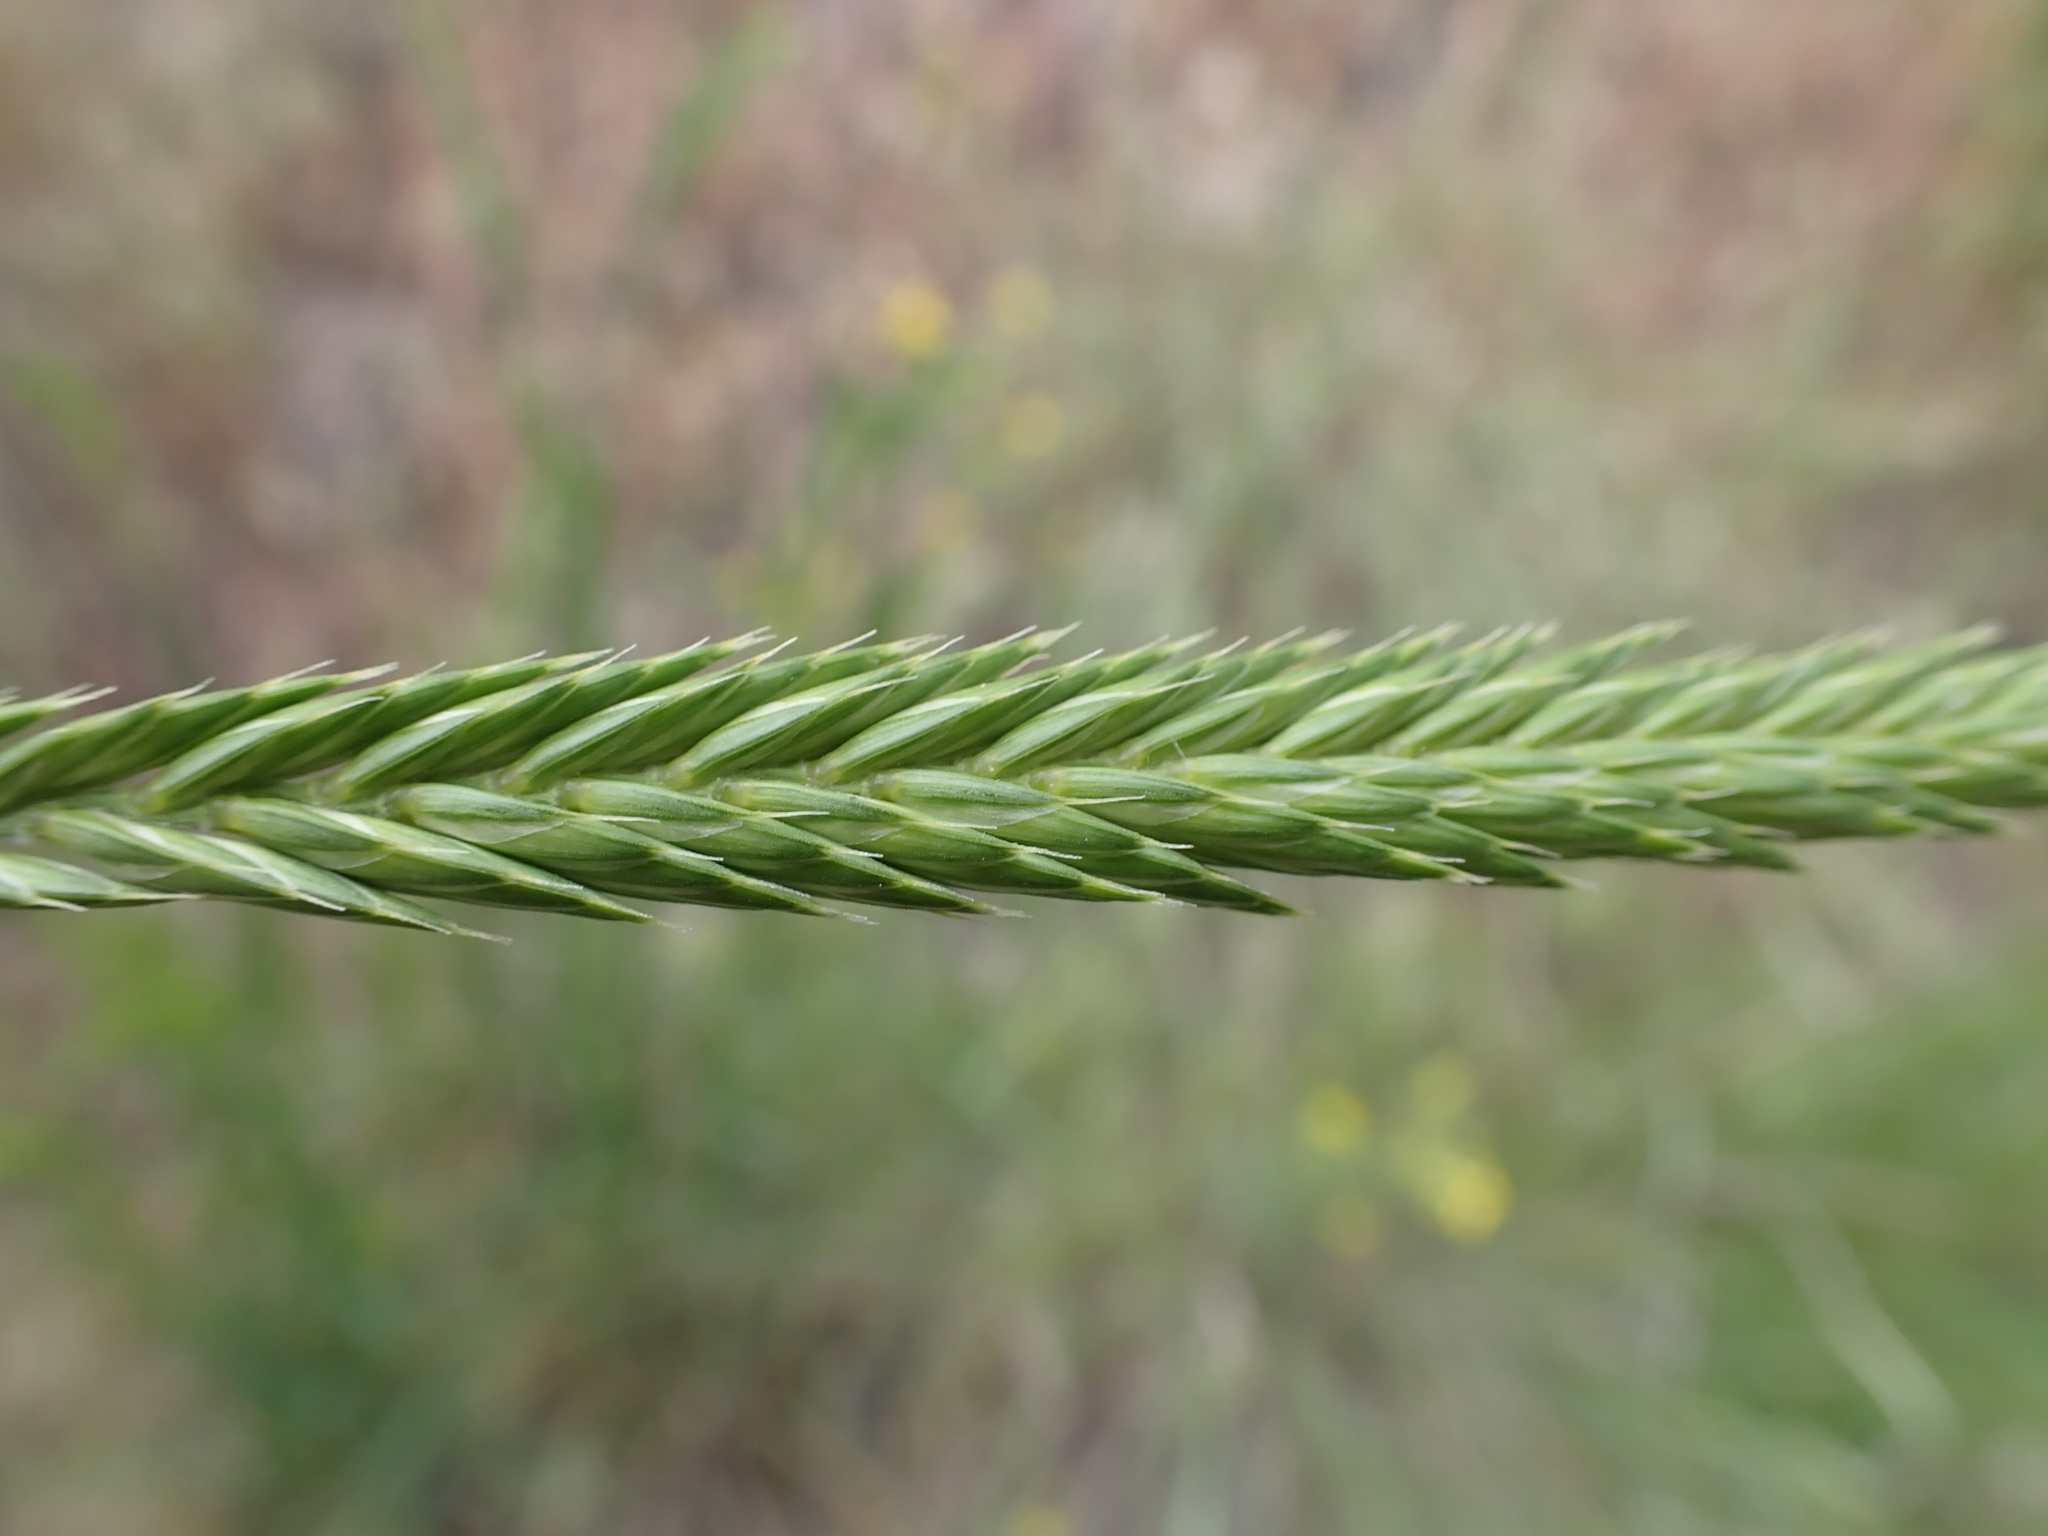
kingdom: Plantae
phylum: Tracheophyta
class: Liliopsida
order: Poales
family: Poaceae
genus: Agropyron
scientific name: Agropyron cristatum
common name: Crested wheatgrass
